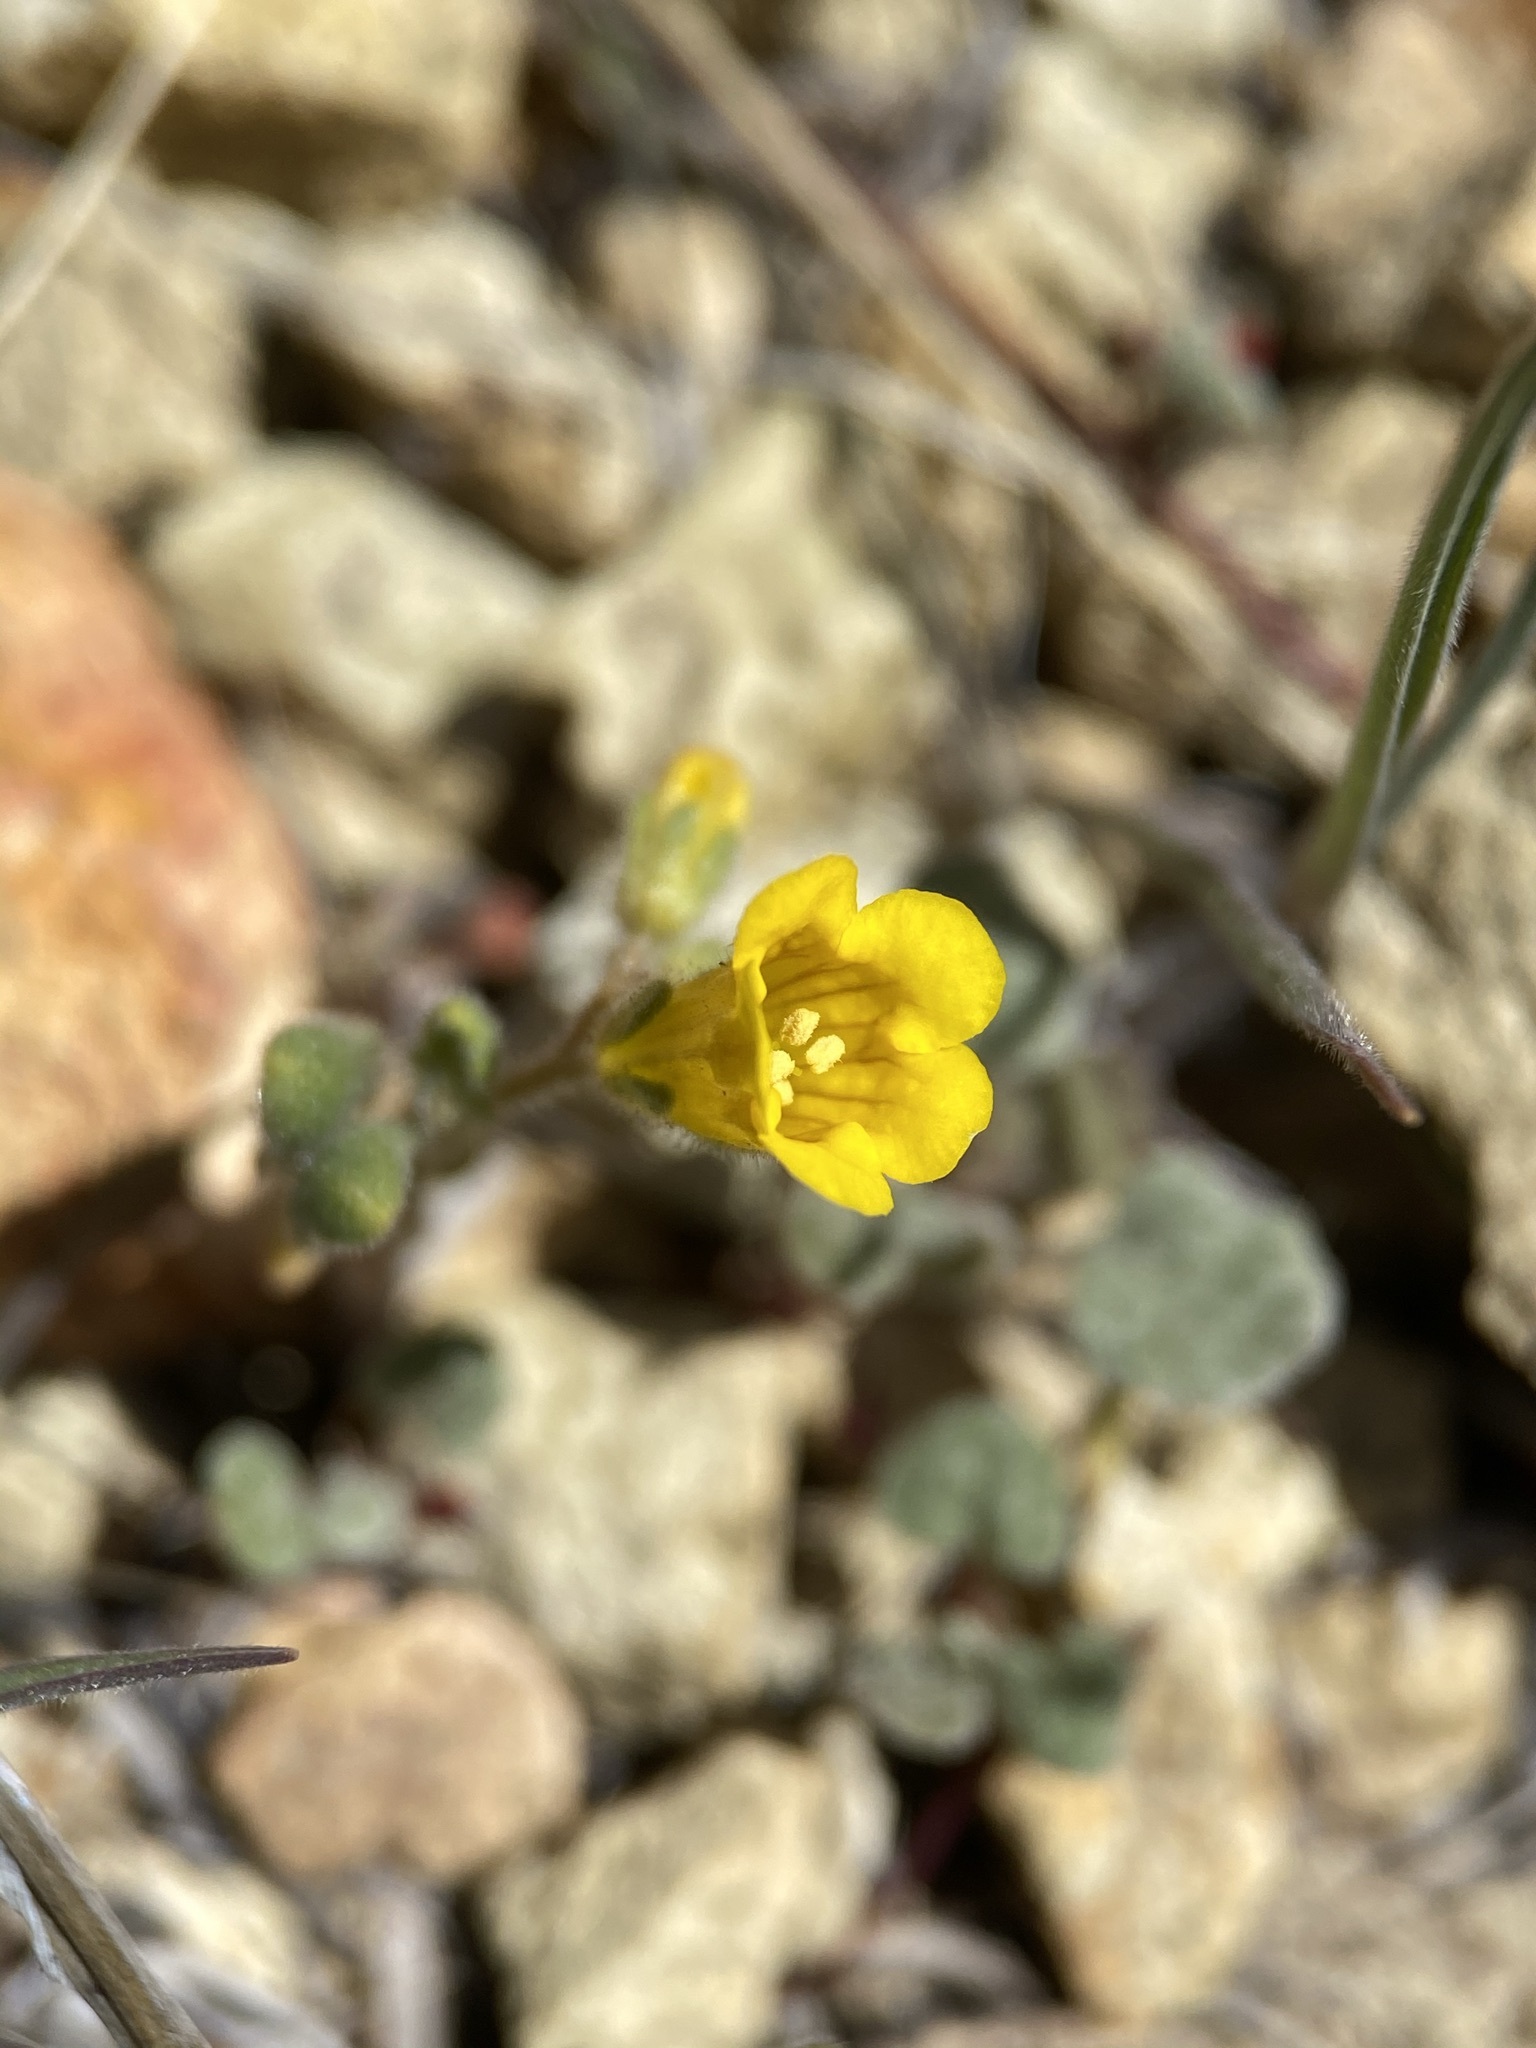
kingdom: Plantae
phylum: Tracheophyta
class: Magnoliopsida
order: Boraginales
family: Hydrophyllaceae
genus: Phacelia
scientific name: Phacelia lutea
